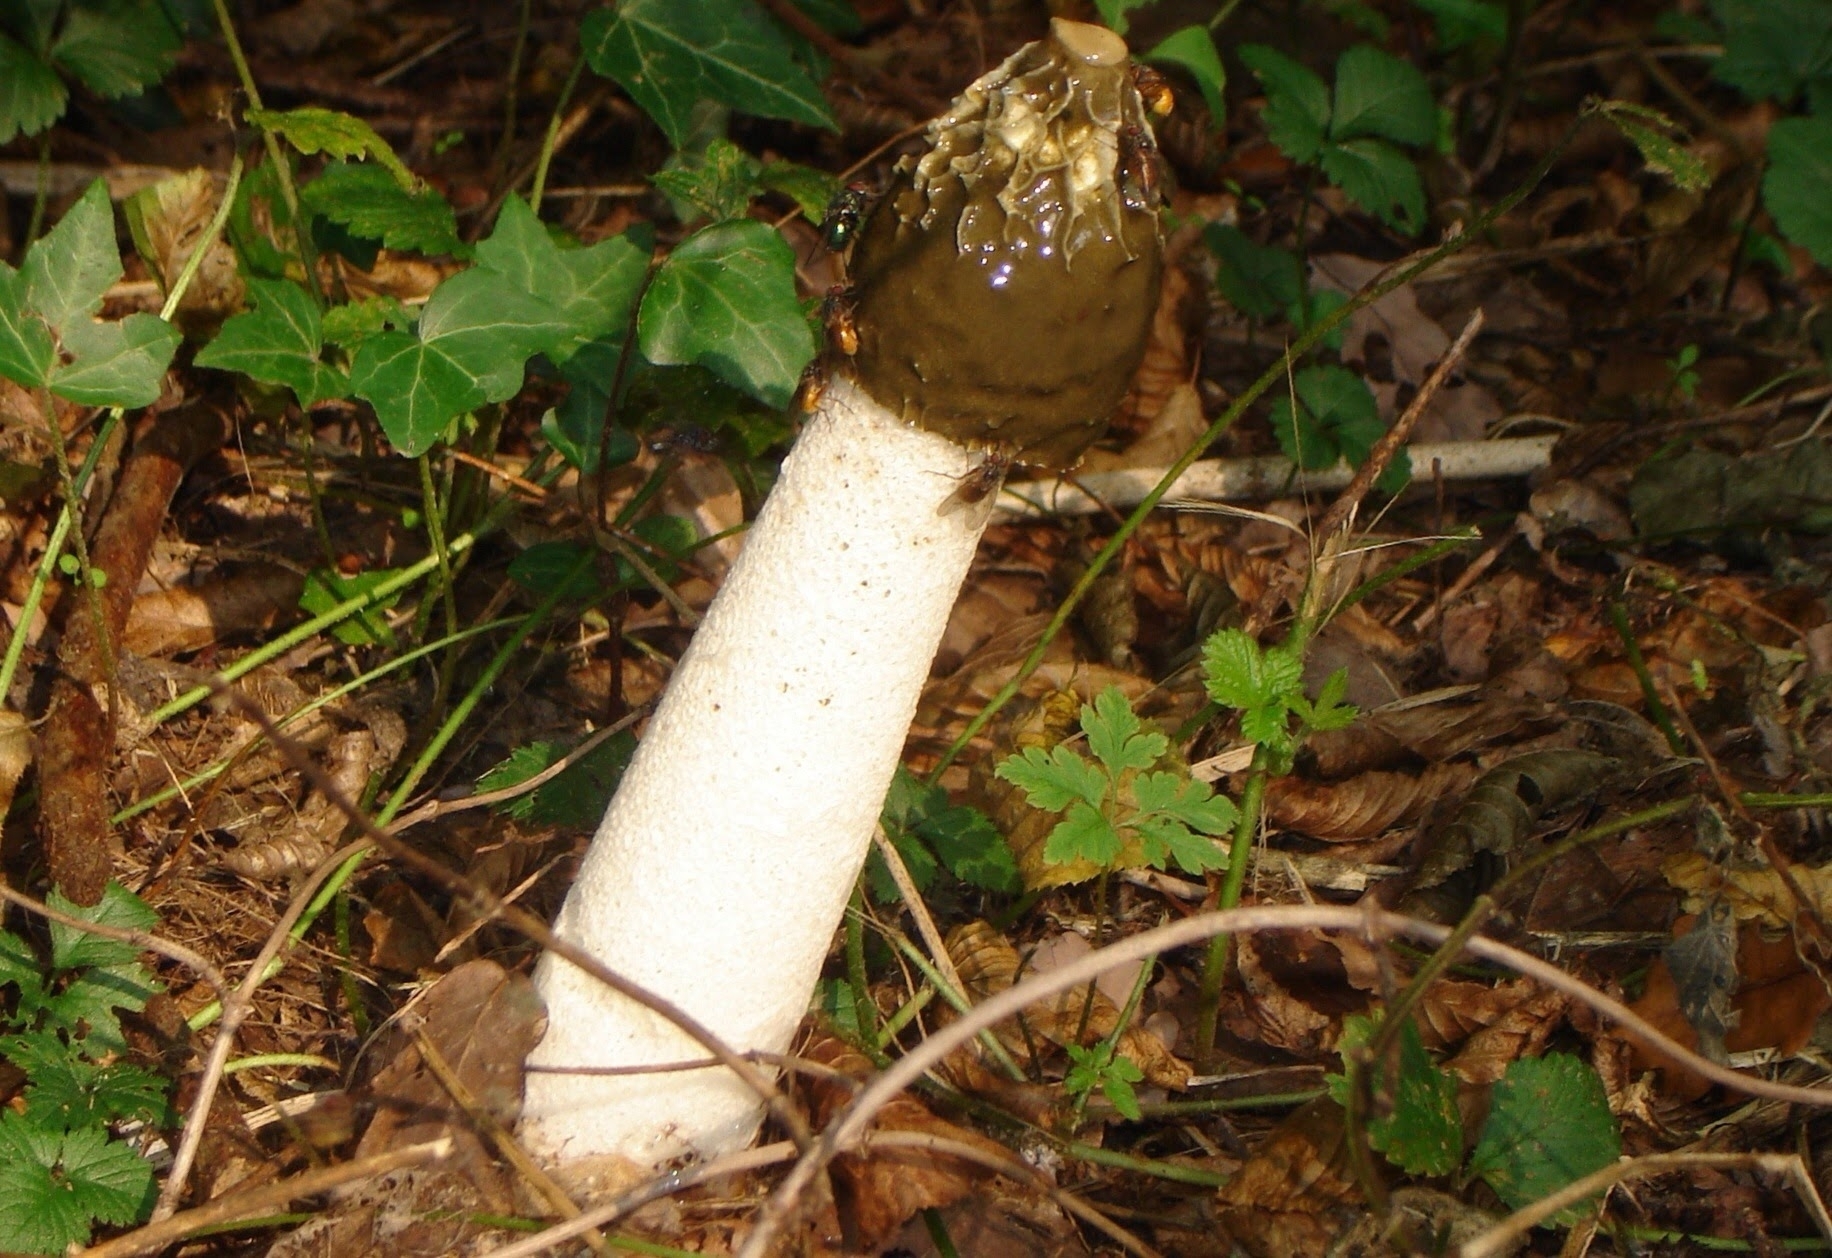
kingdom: Fungi
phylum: Basidiomycota
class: Agaricomycetes
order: Phallales
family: Phallaceae
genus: Phallus
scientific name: Phallus impudicus
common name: Common stinkhorn
